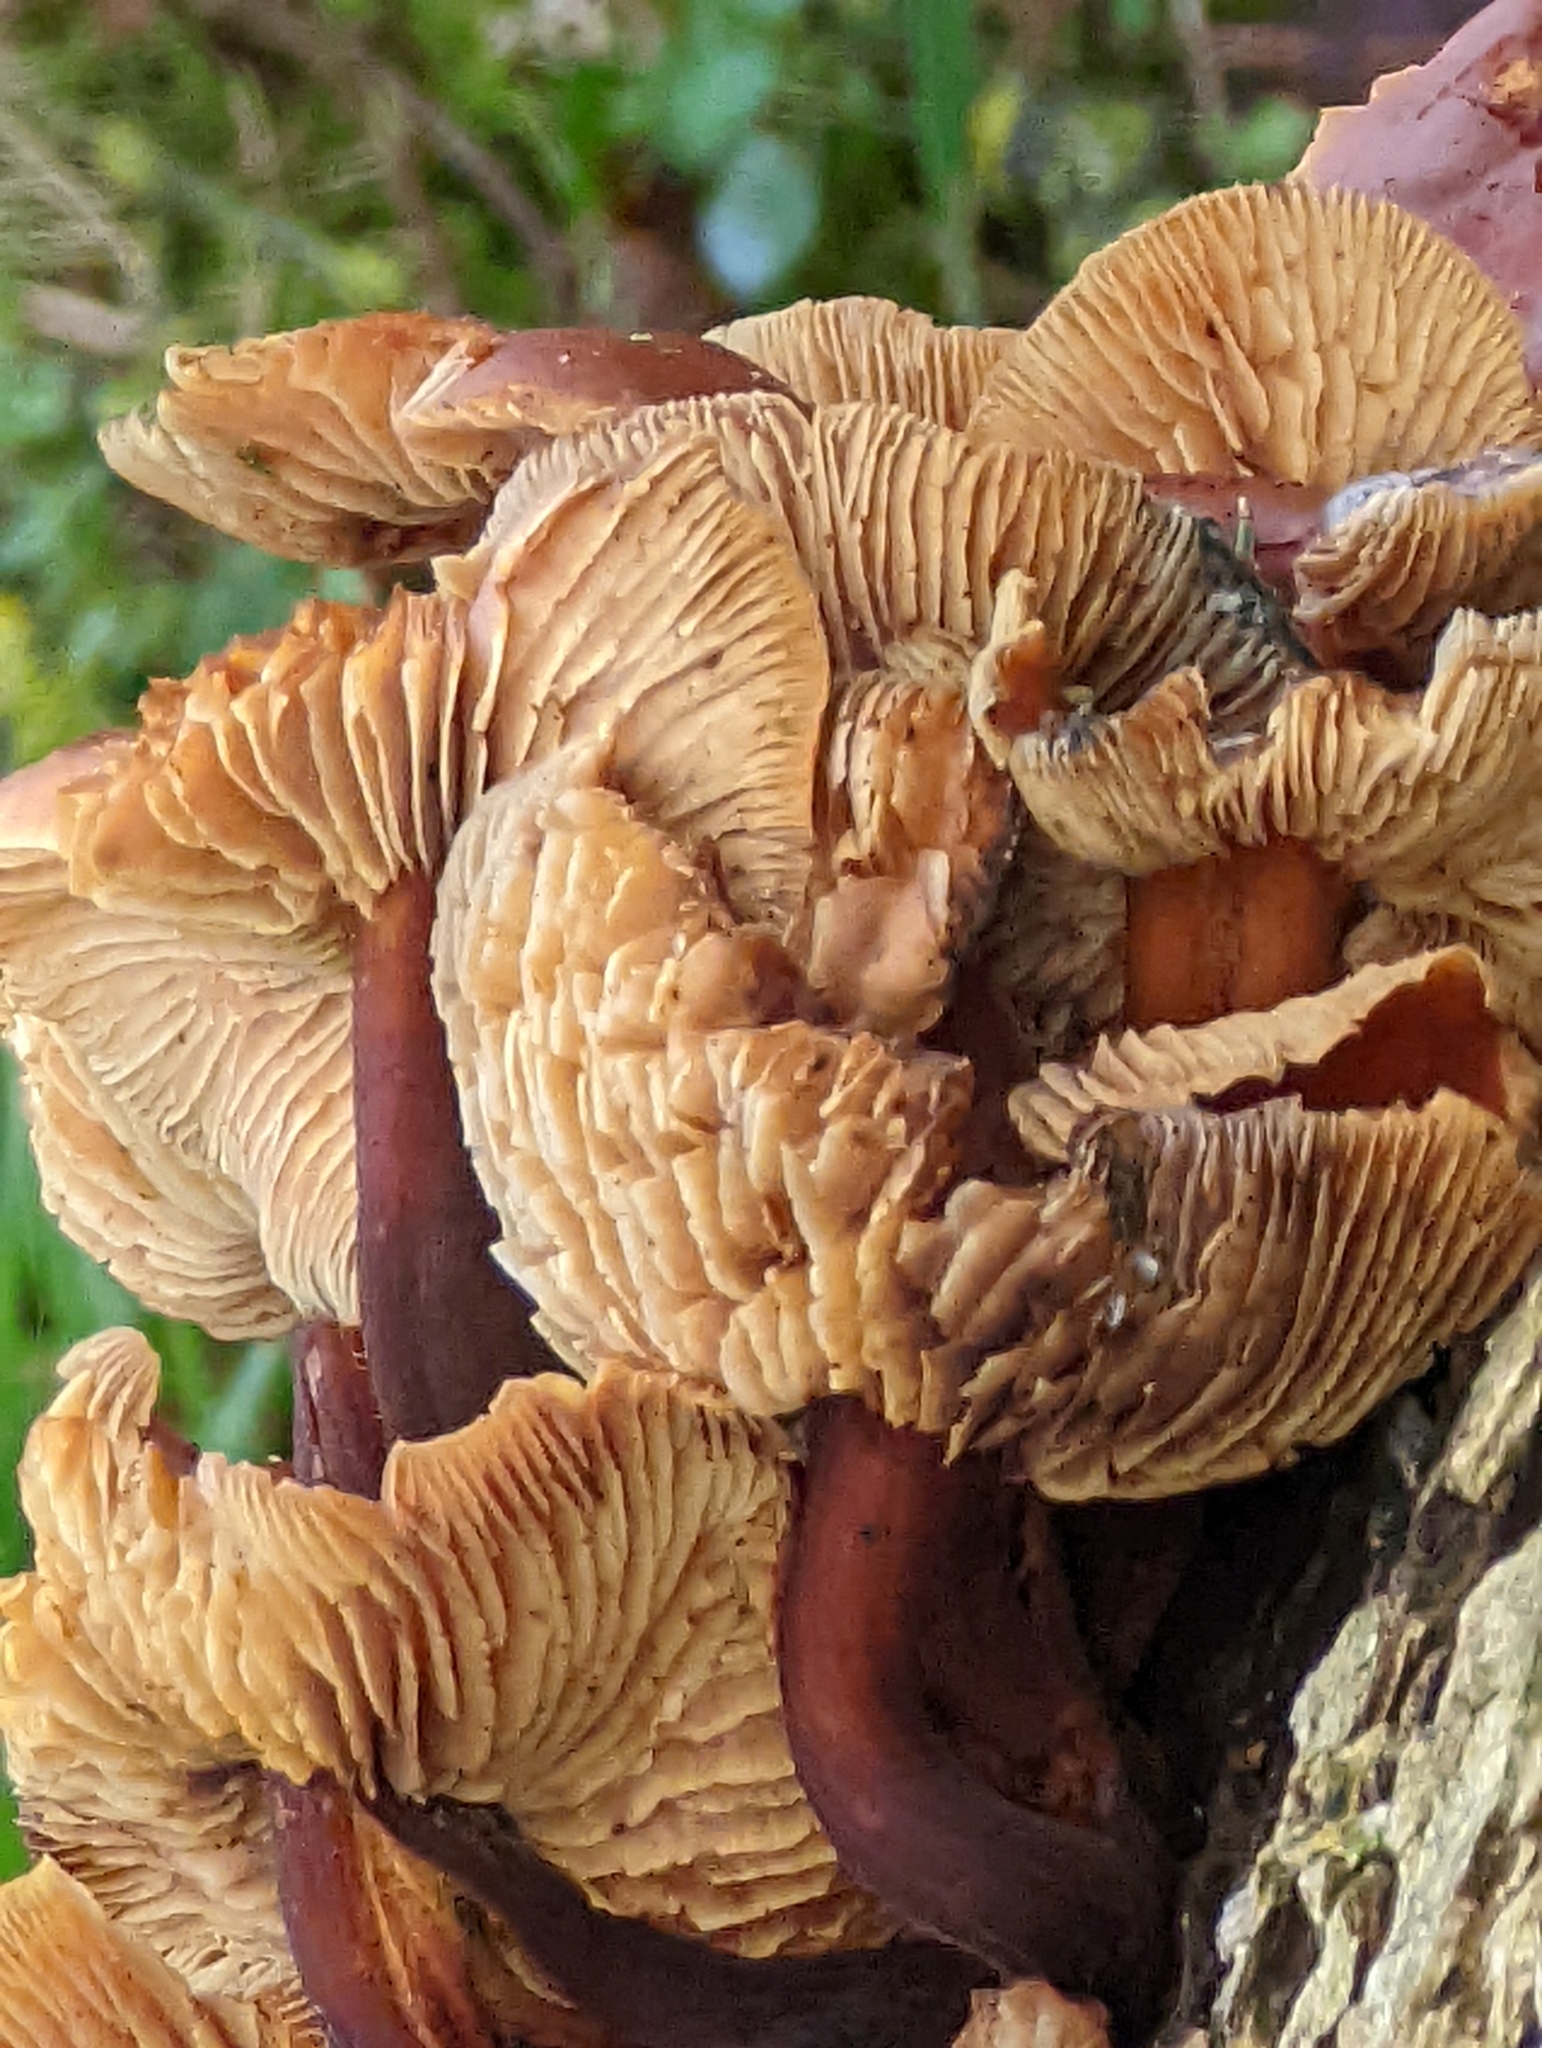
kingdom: Fungi
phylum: Basidiomycota
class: Agaricomycetes
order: Agaricales
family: Physalacriaceae
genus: Flammulina
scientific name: Flammulina
